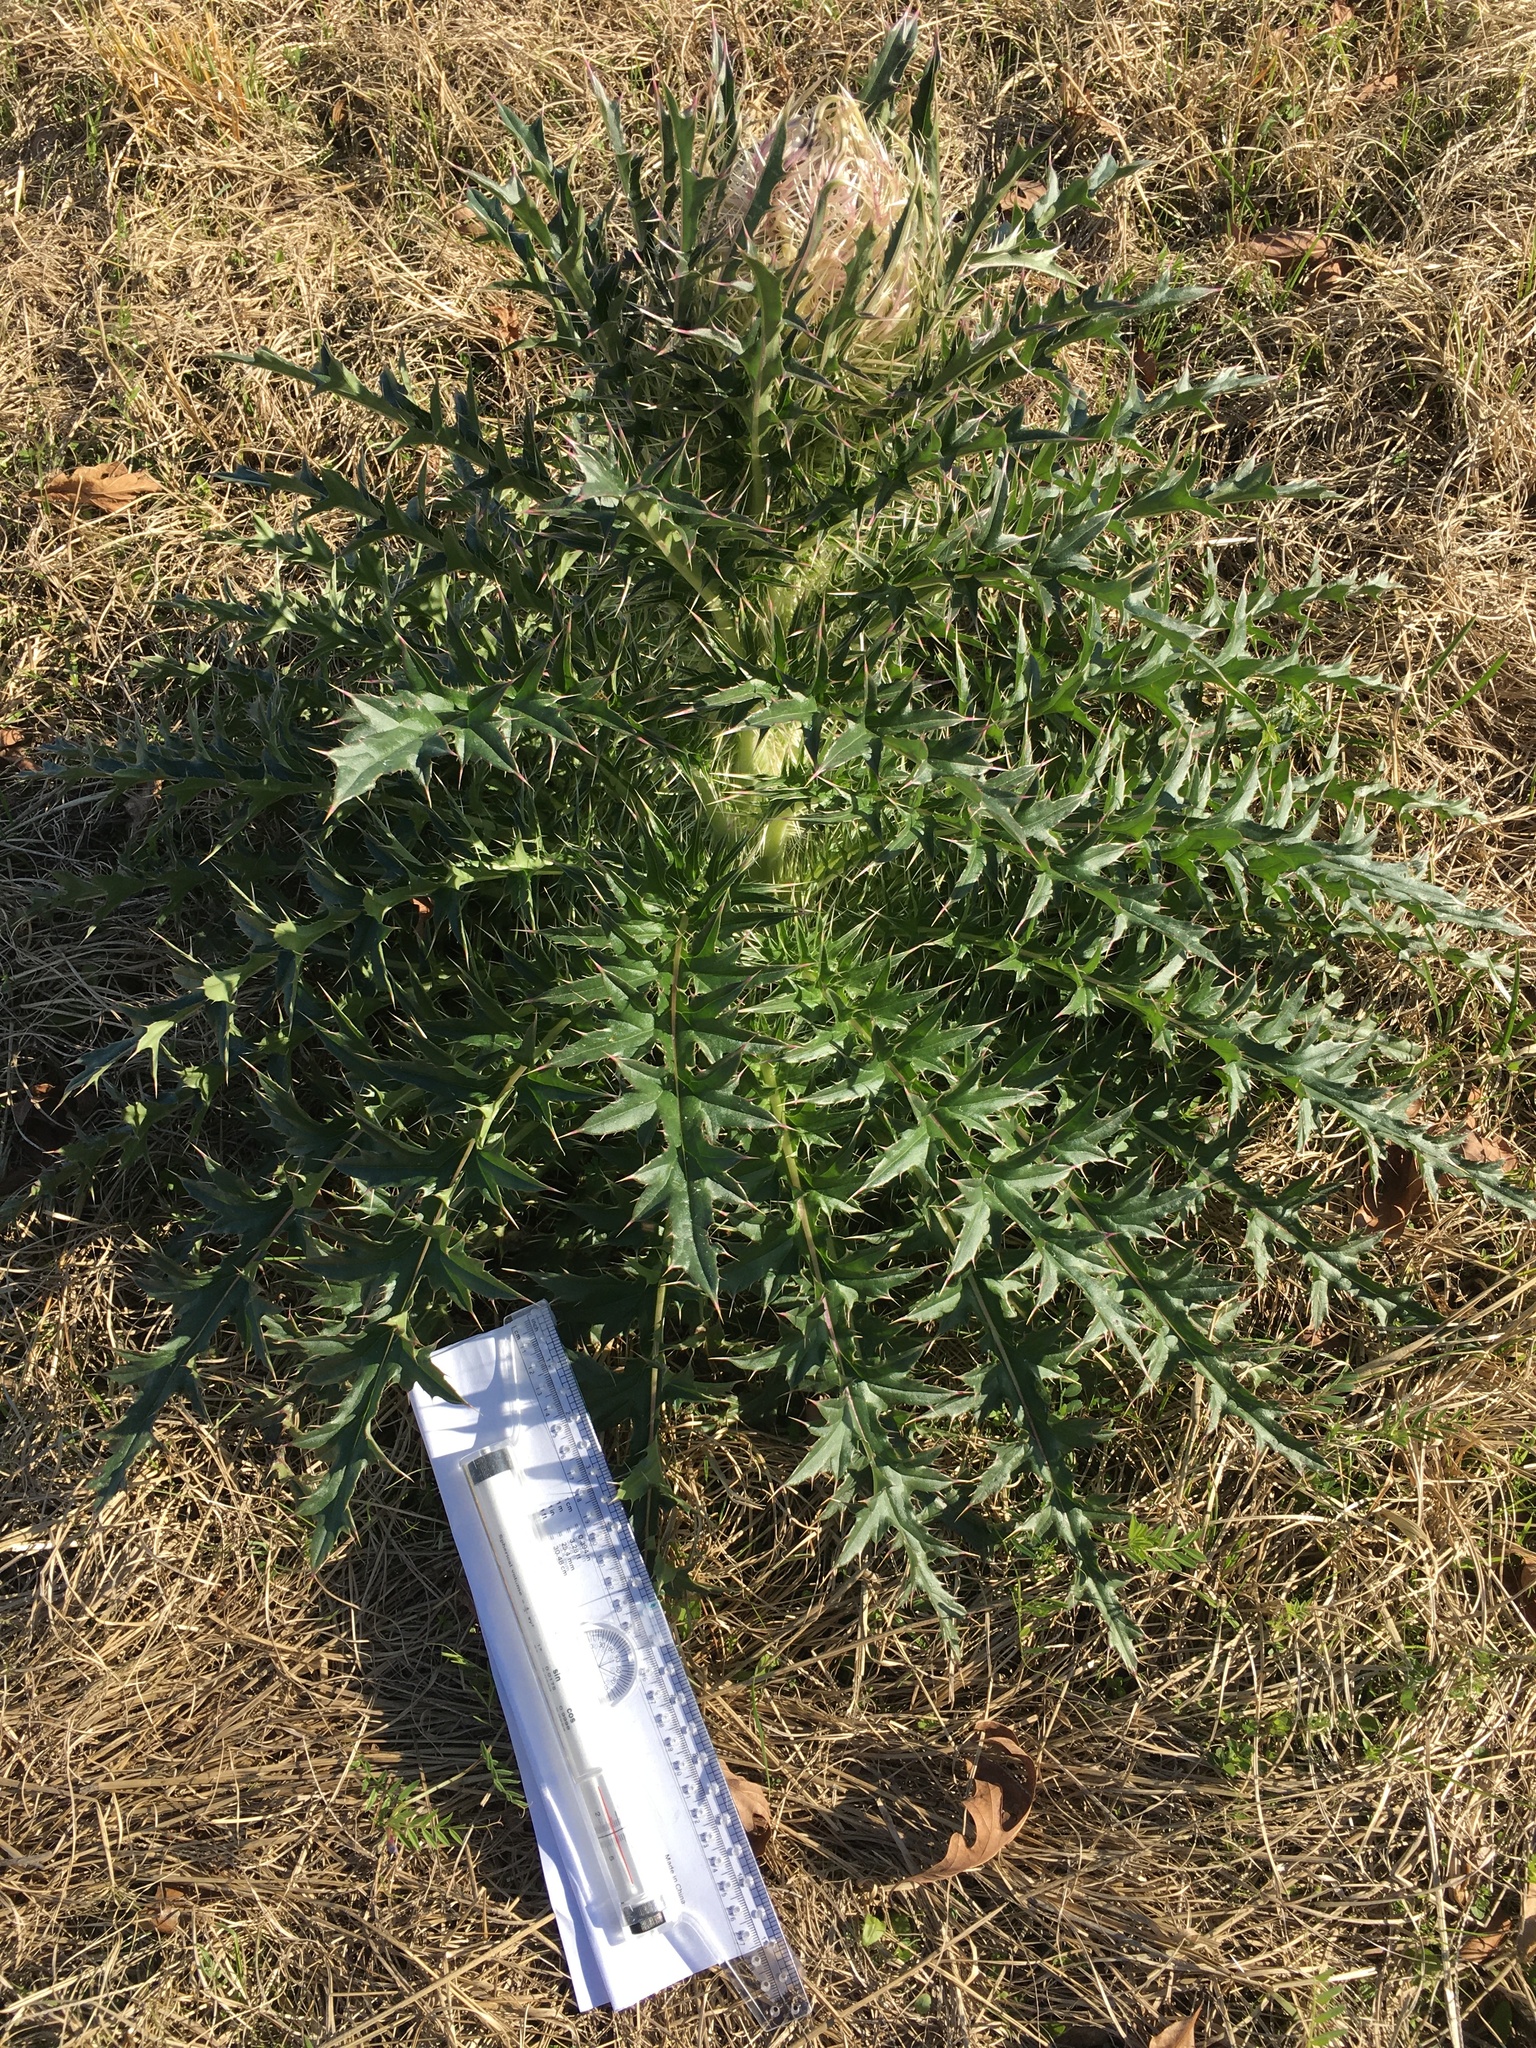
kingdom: Plantae
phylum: Tracheophyta
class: Magnoliopsida
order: Asterales
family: Asteraceae
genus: Cirsium
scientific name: Cirsium horridulum
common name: Bristly thistle
